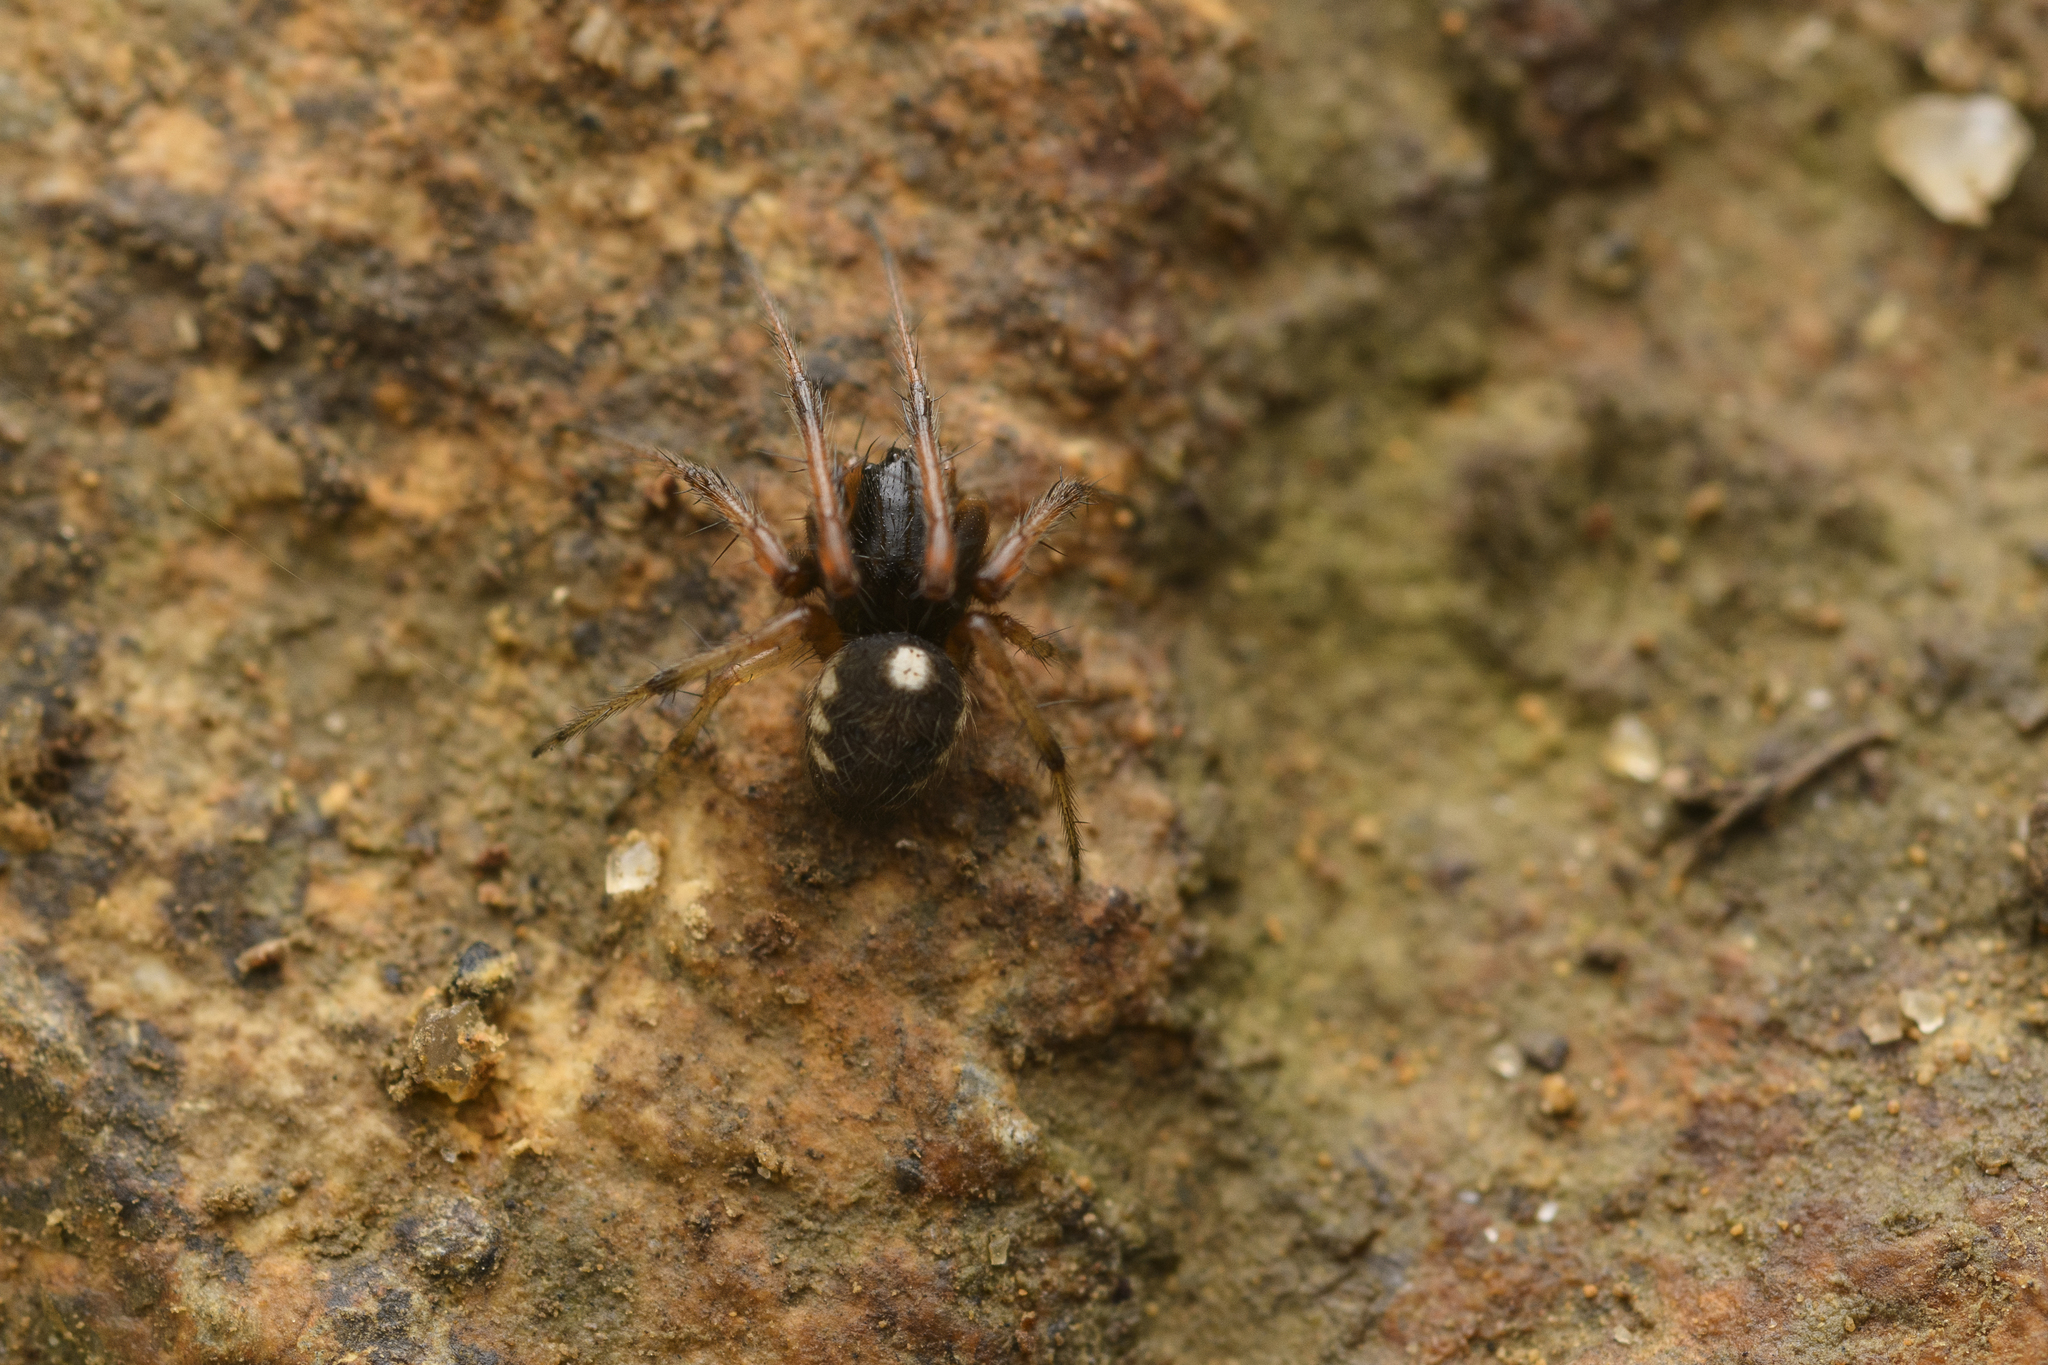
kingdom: Animalia
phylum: Arthropoda
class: Arachnida
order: Araneae
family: Araneidae
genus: Araneus
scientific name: Araneus ejusmodi
